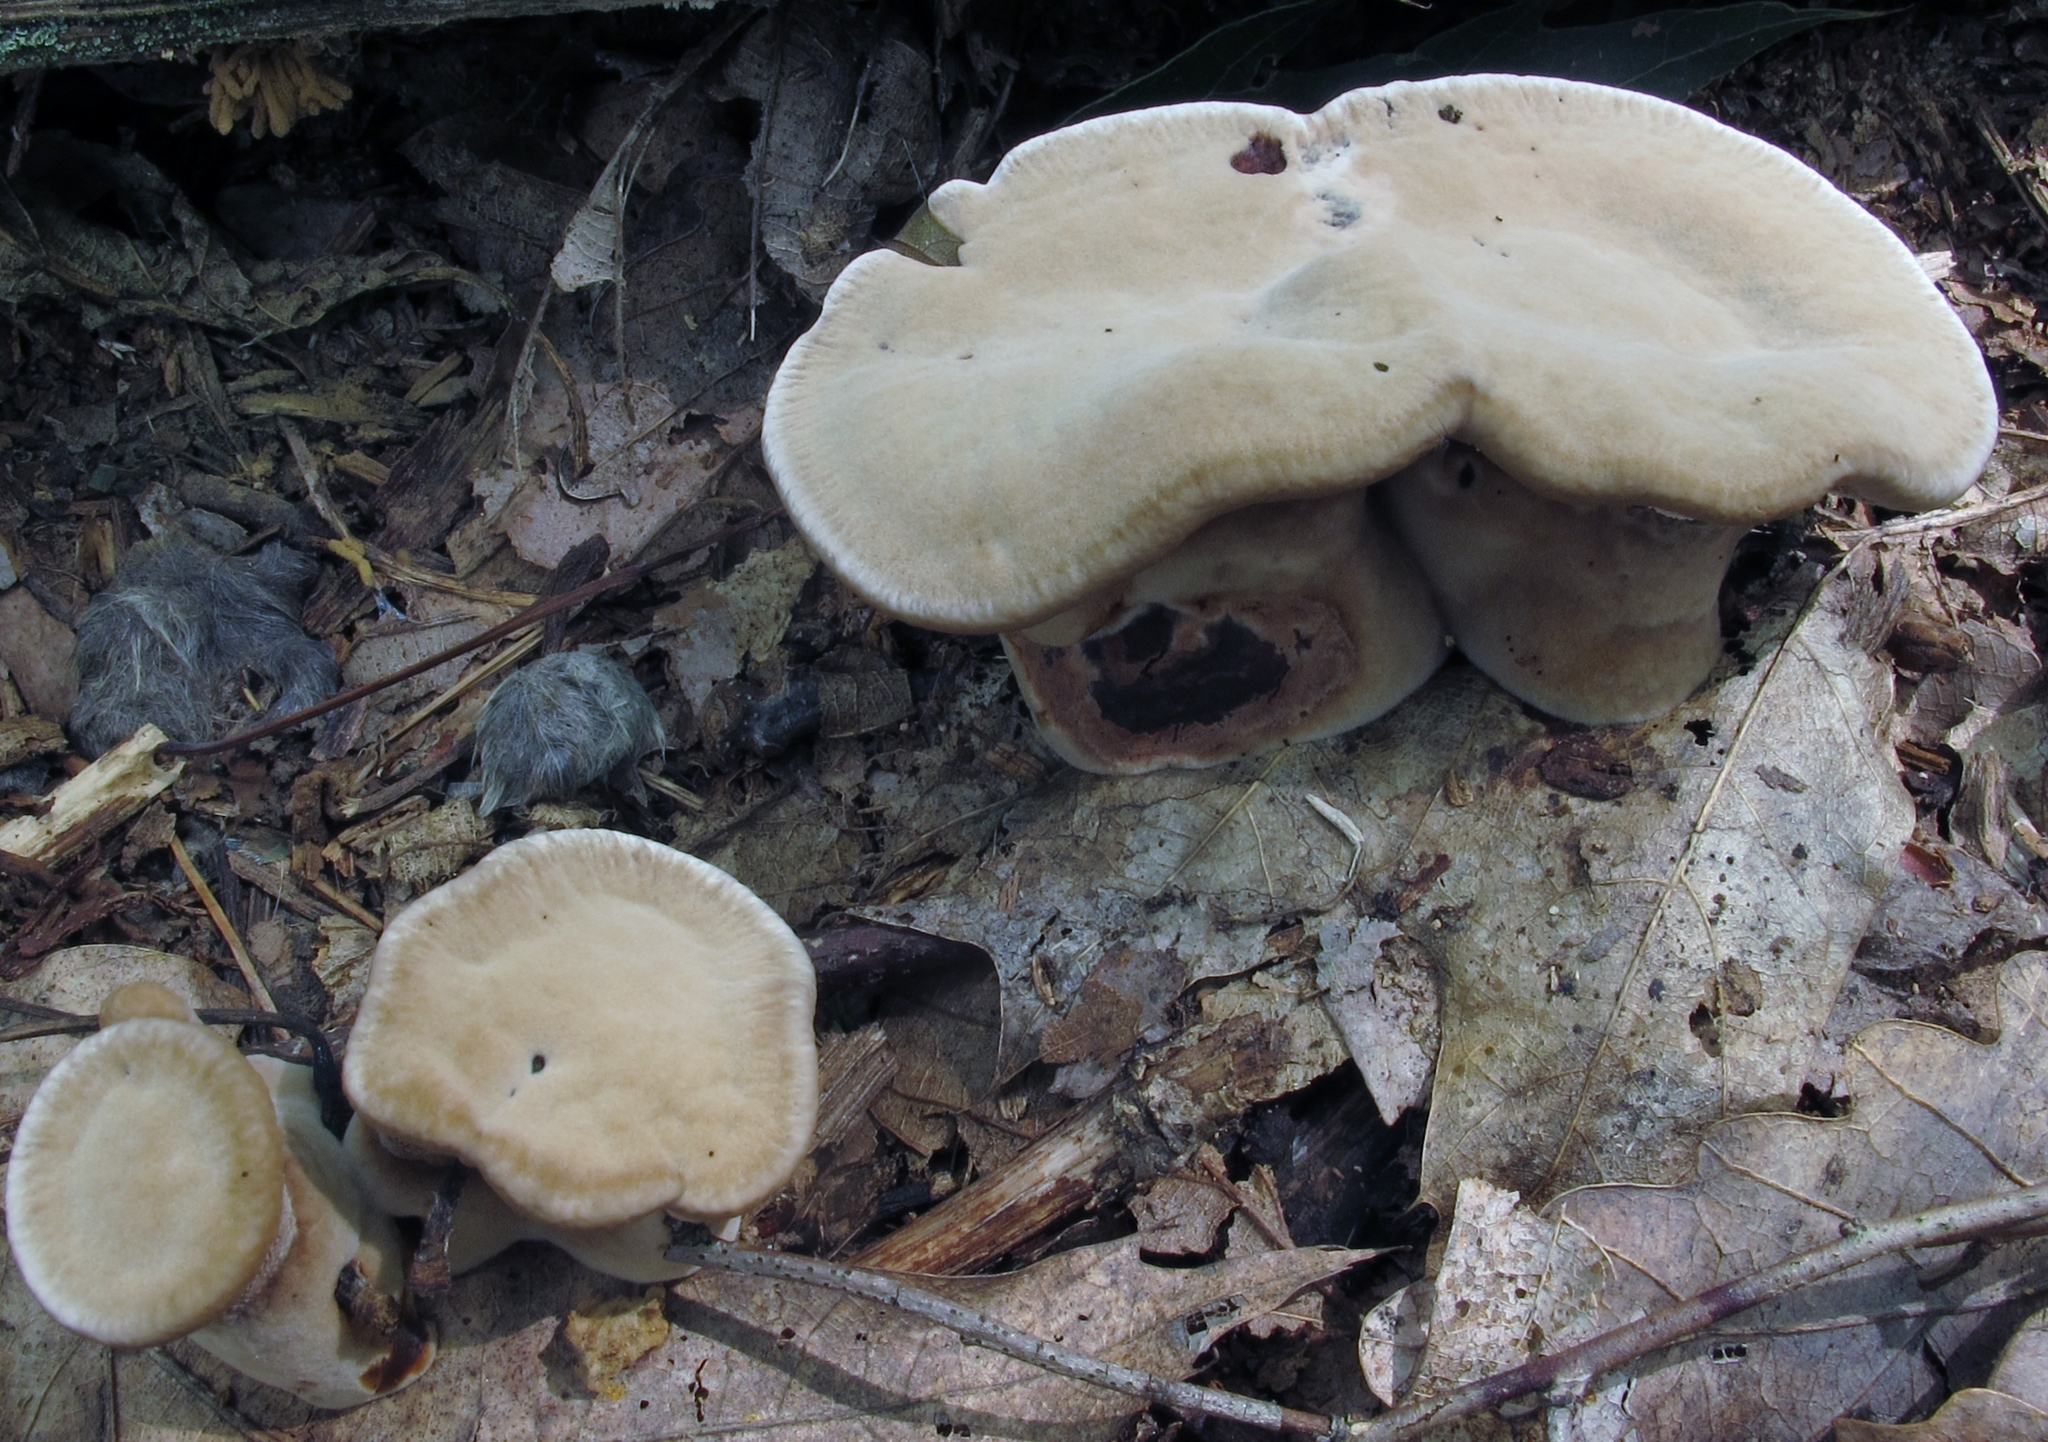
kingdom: Fungi
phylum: Basidiomycota
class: Agaricomycetes
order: Thelephorales
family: Bankeraceae
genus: Hydnellum
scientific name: Hydnellum spongiosipes
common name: Velvet tooth
